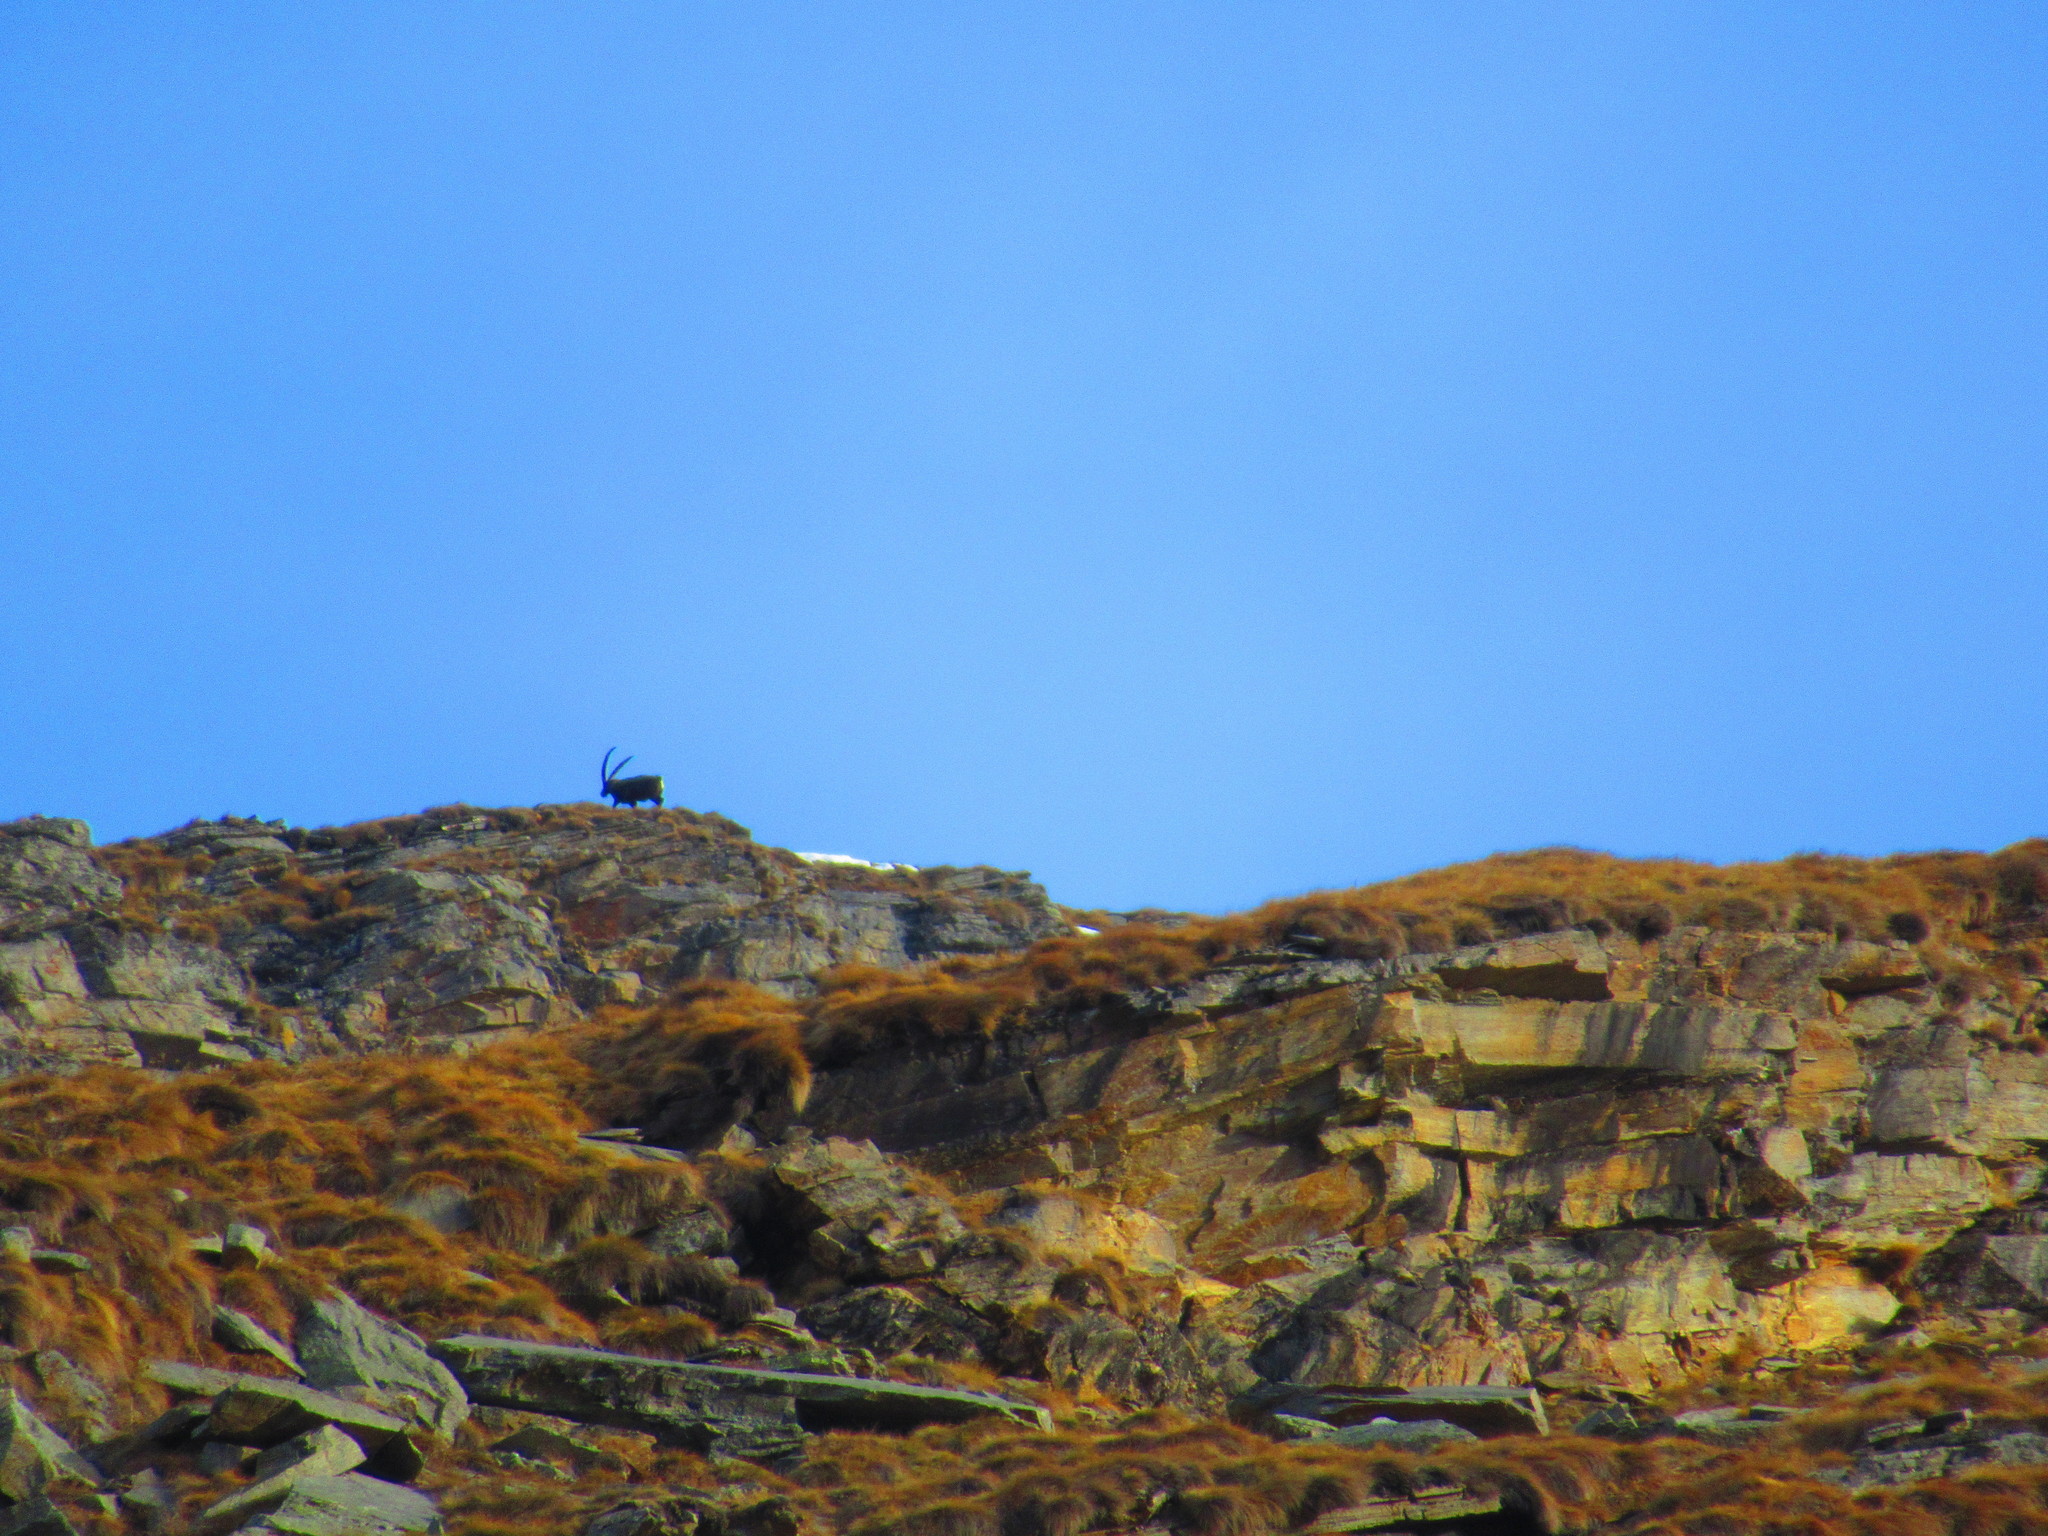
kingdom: Animalia
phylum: Chordata
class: Mammalia
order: Artiodactyla
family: Bovidae
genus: Capra
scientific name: Capra ibex
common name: Alpine ibex
